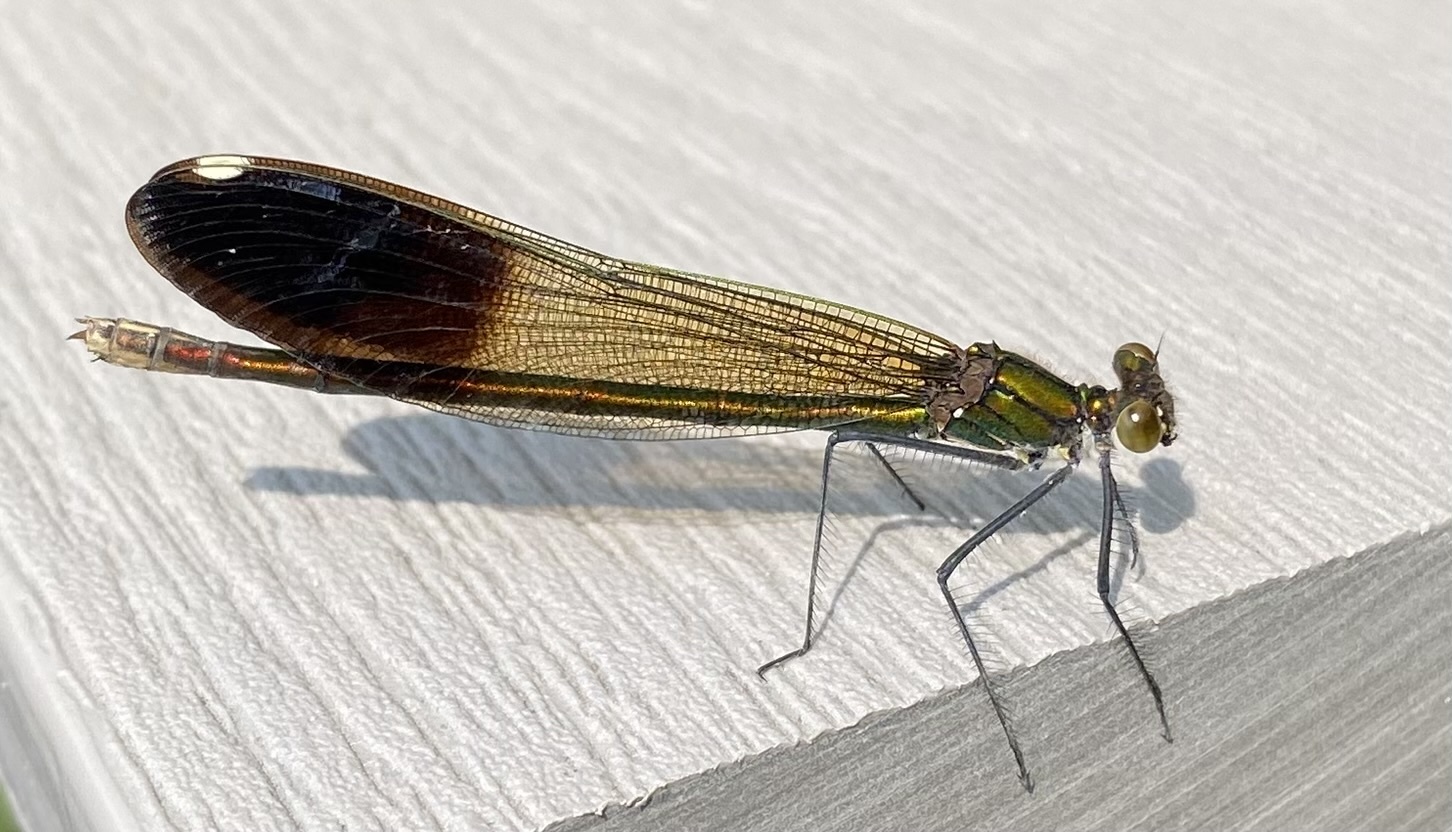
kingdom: Animalia
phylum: Arthropoda
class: Insecta
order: Odonata
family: Calopterygidae
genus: Calopteryx
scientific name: Calopteryx aequabilis
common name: River jewelwing
